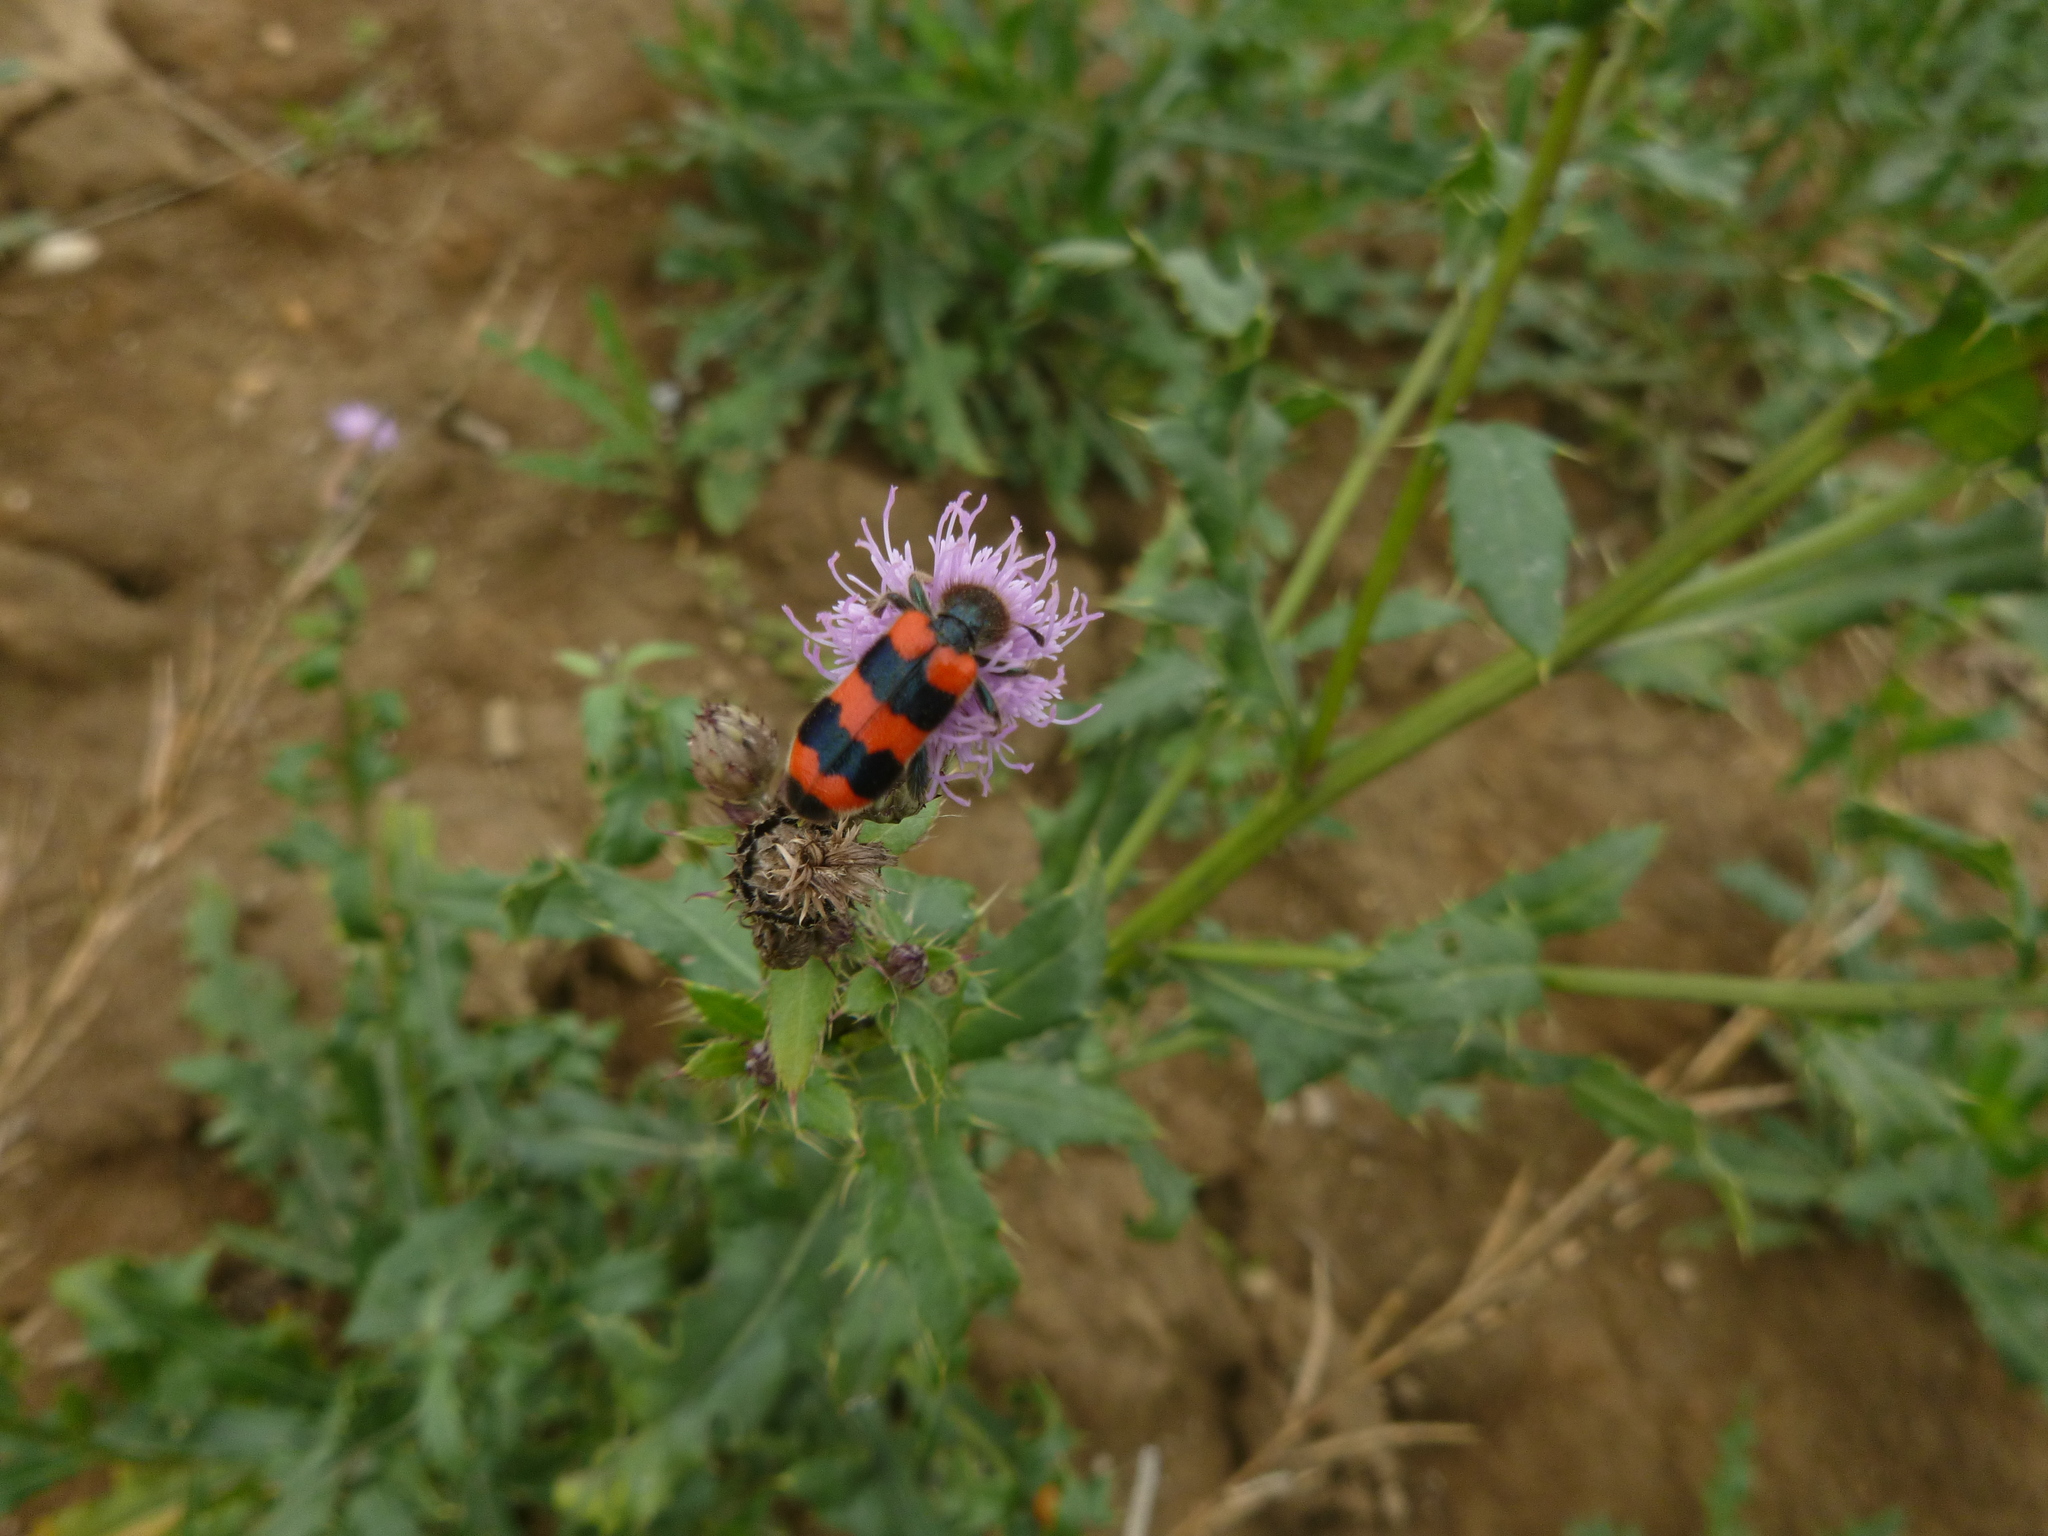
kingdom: Animalia
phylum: Arthropoda
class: Insecta
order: Coleoptera
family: Cleridae
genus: Trichodes
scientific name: Trichodes apiarius
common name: Bee-eating beetle
